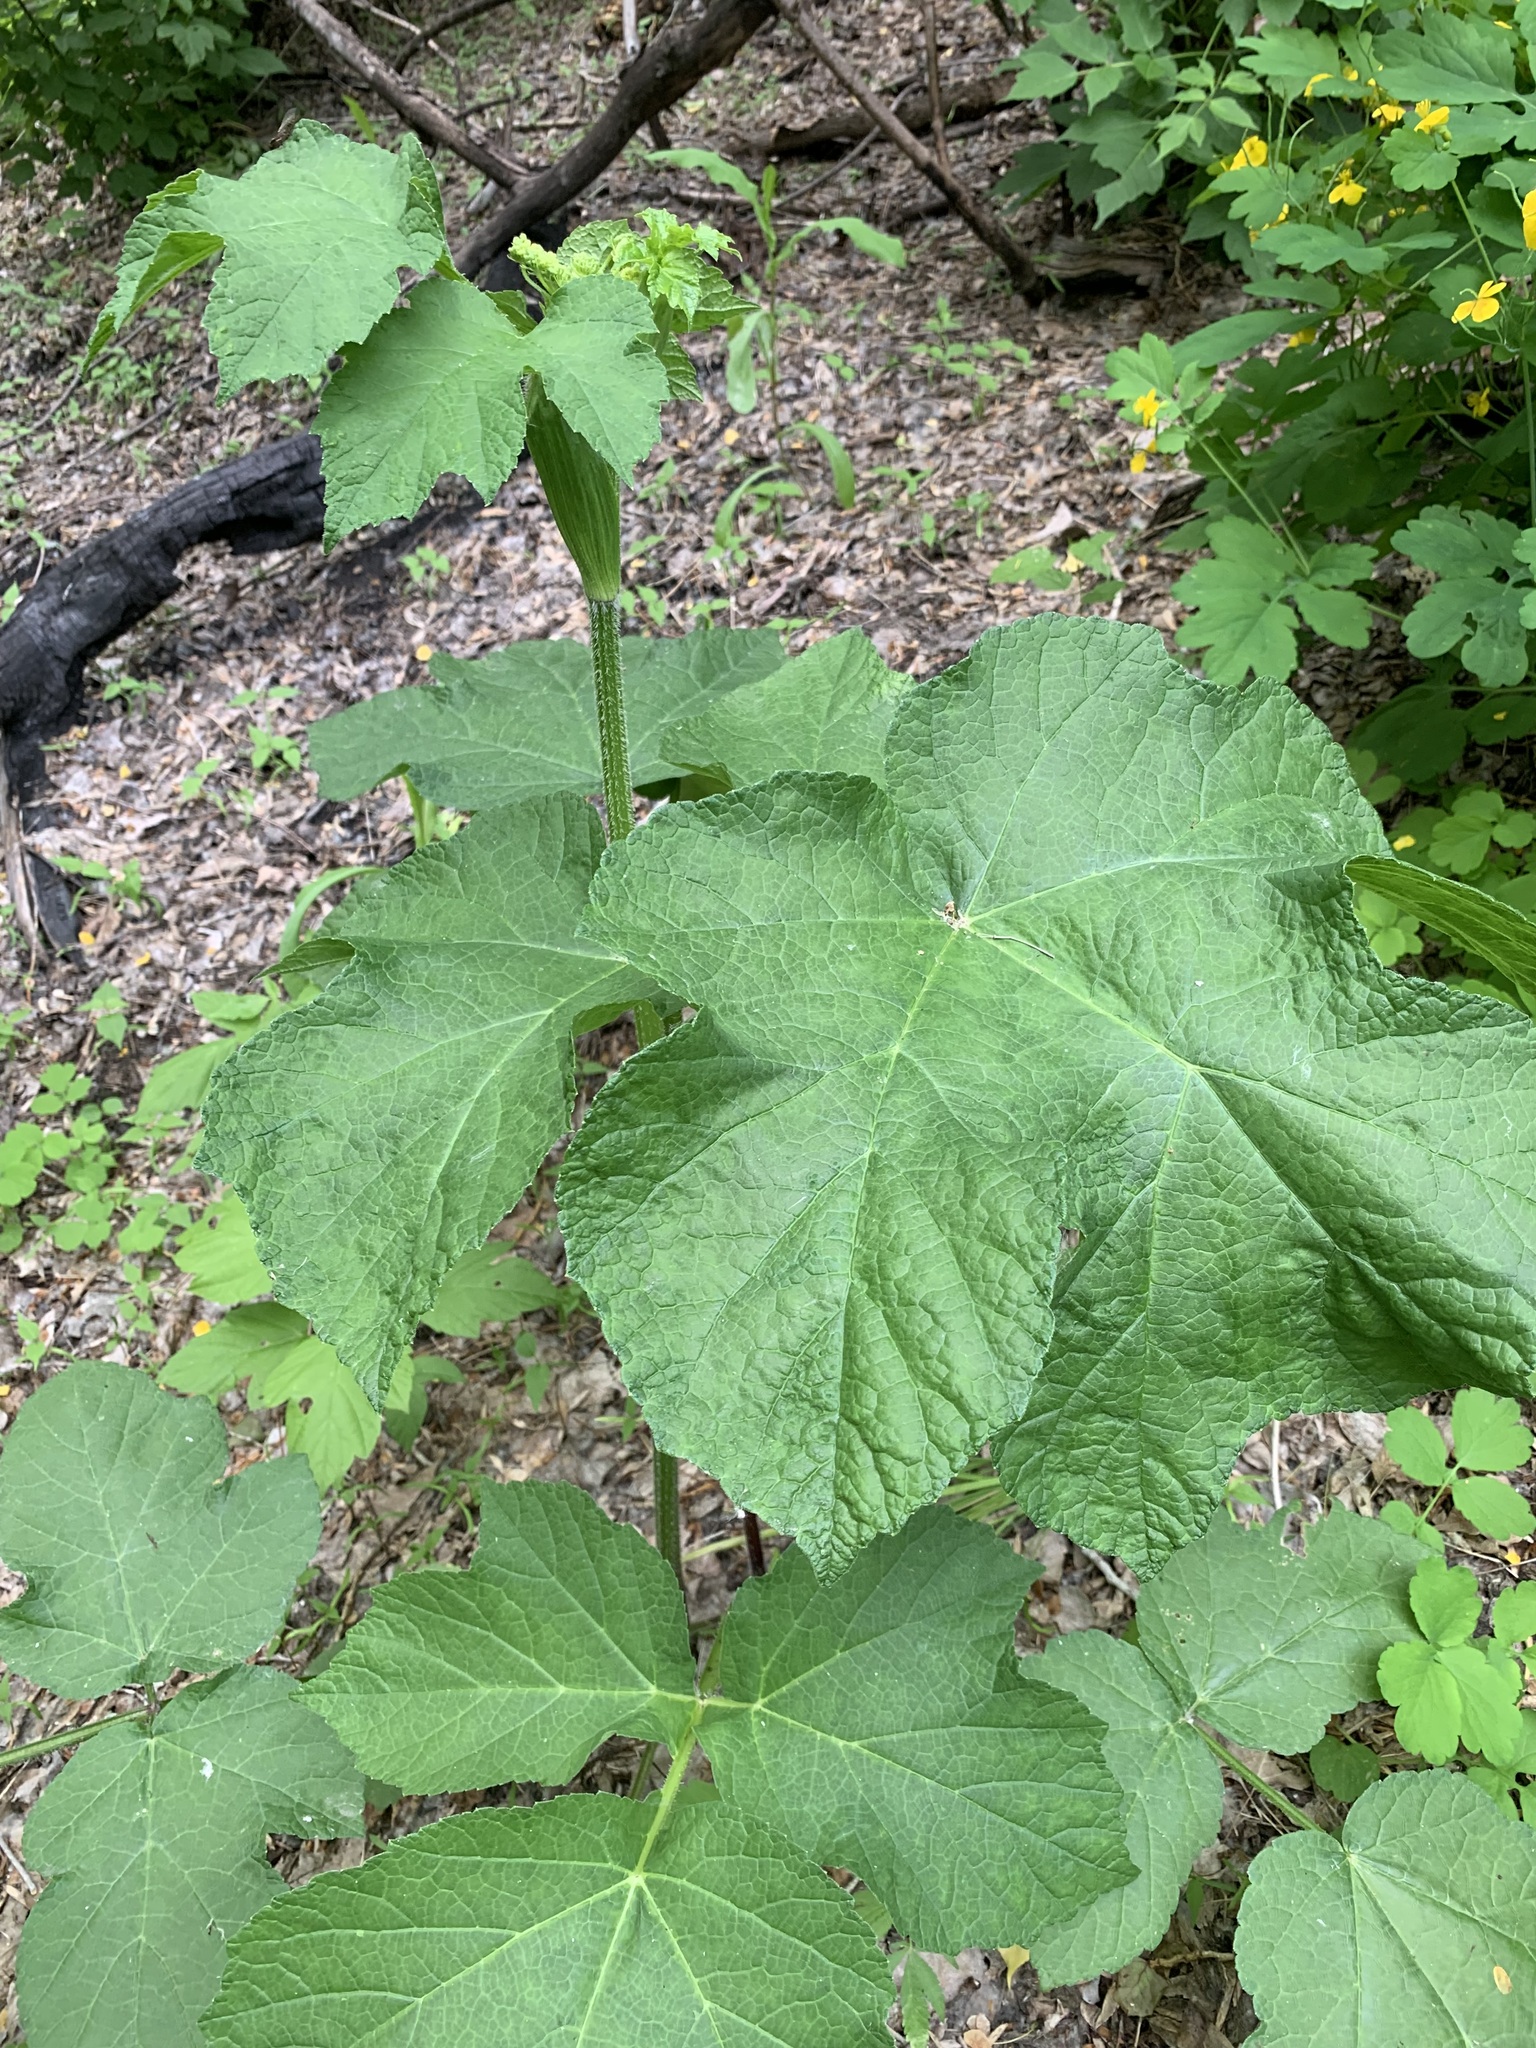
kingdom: Plantae
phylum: Tracheophyta
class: Magnoliopsida
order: Apiales
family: Apiaceae
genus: Heracleum
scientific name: Heracleum sphondylium
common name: Hogweed
